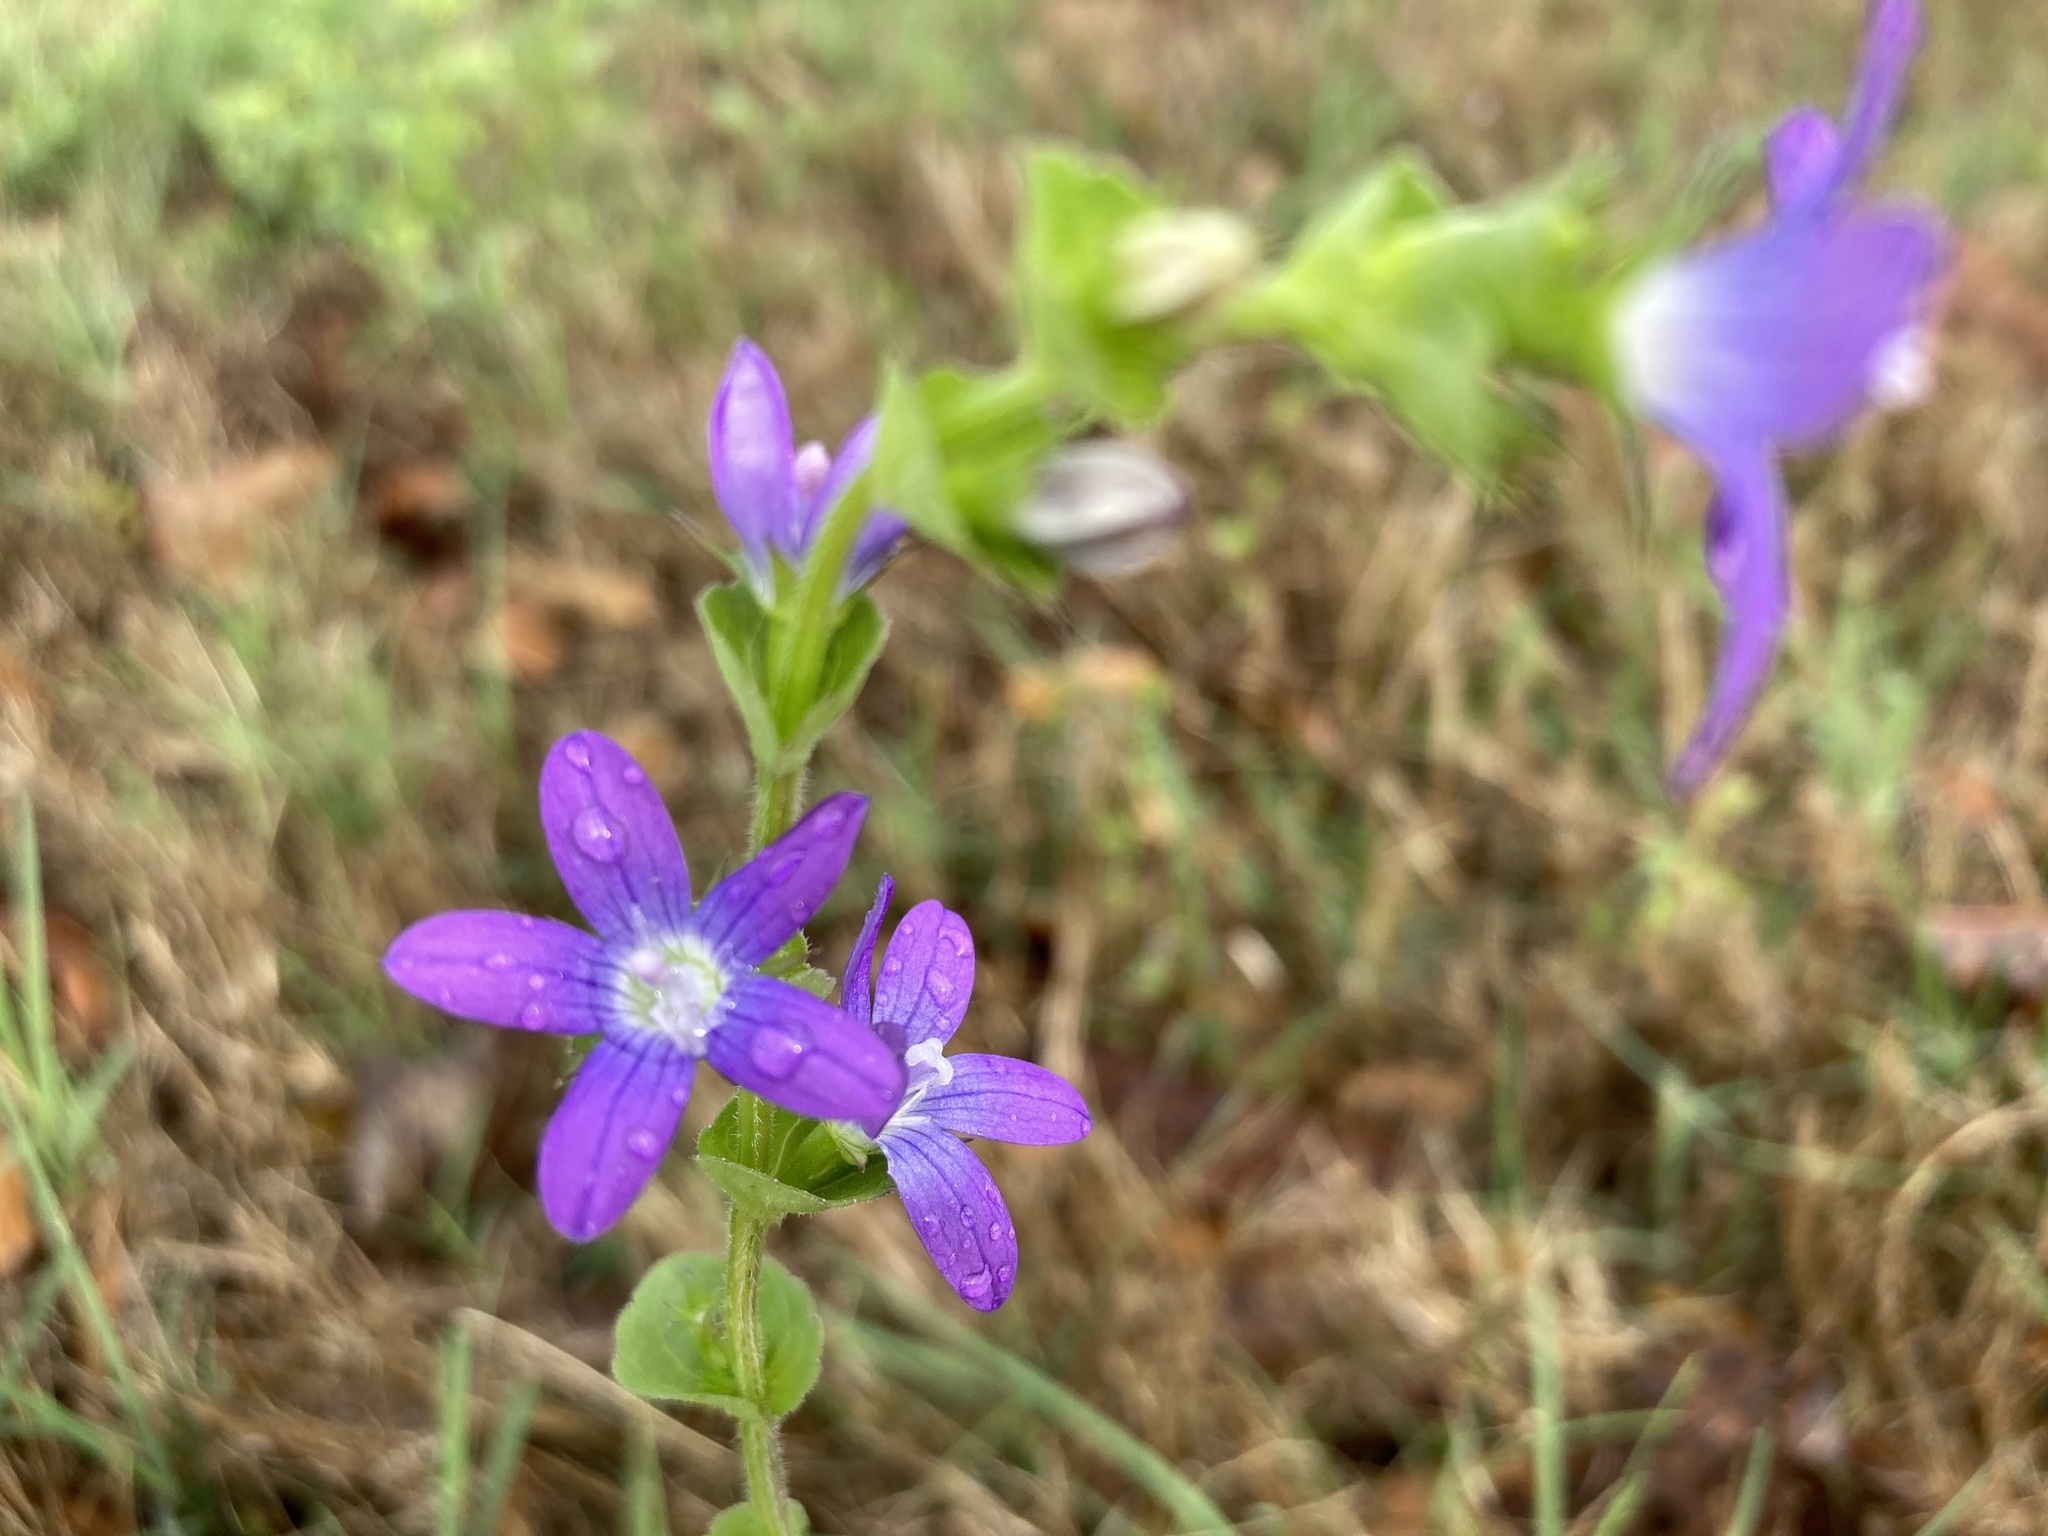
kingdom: Plantae
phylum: Tracheophyta
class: Magnoliopsida
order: Asterales
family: Campanulaceae
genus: Triodanis
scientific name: Triodanis perfoliata
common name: Clasping venus' looking-glass
